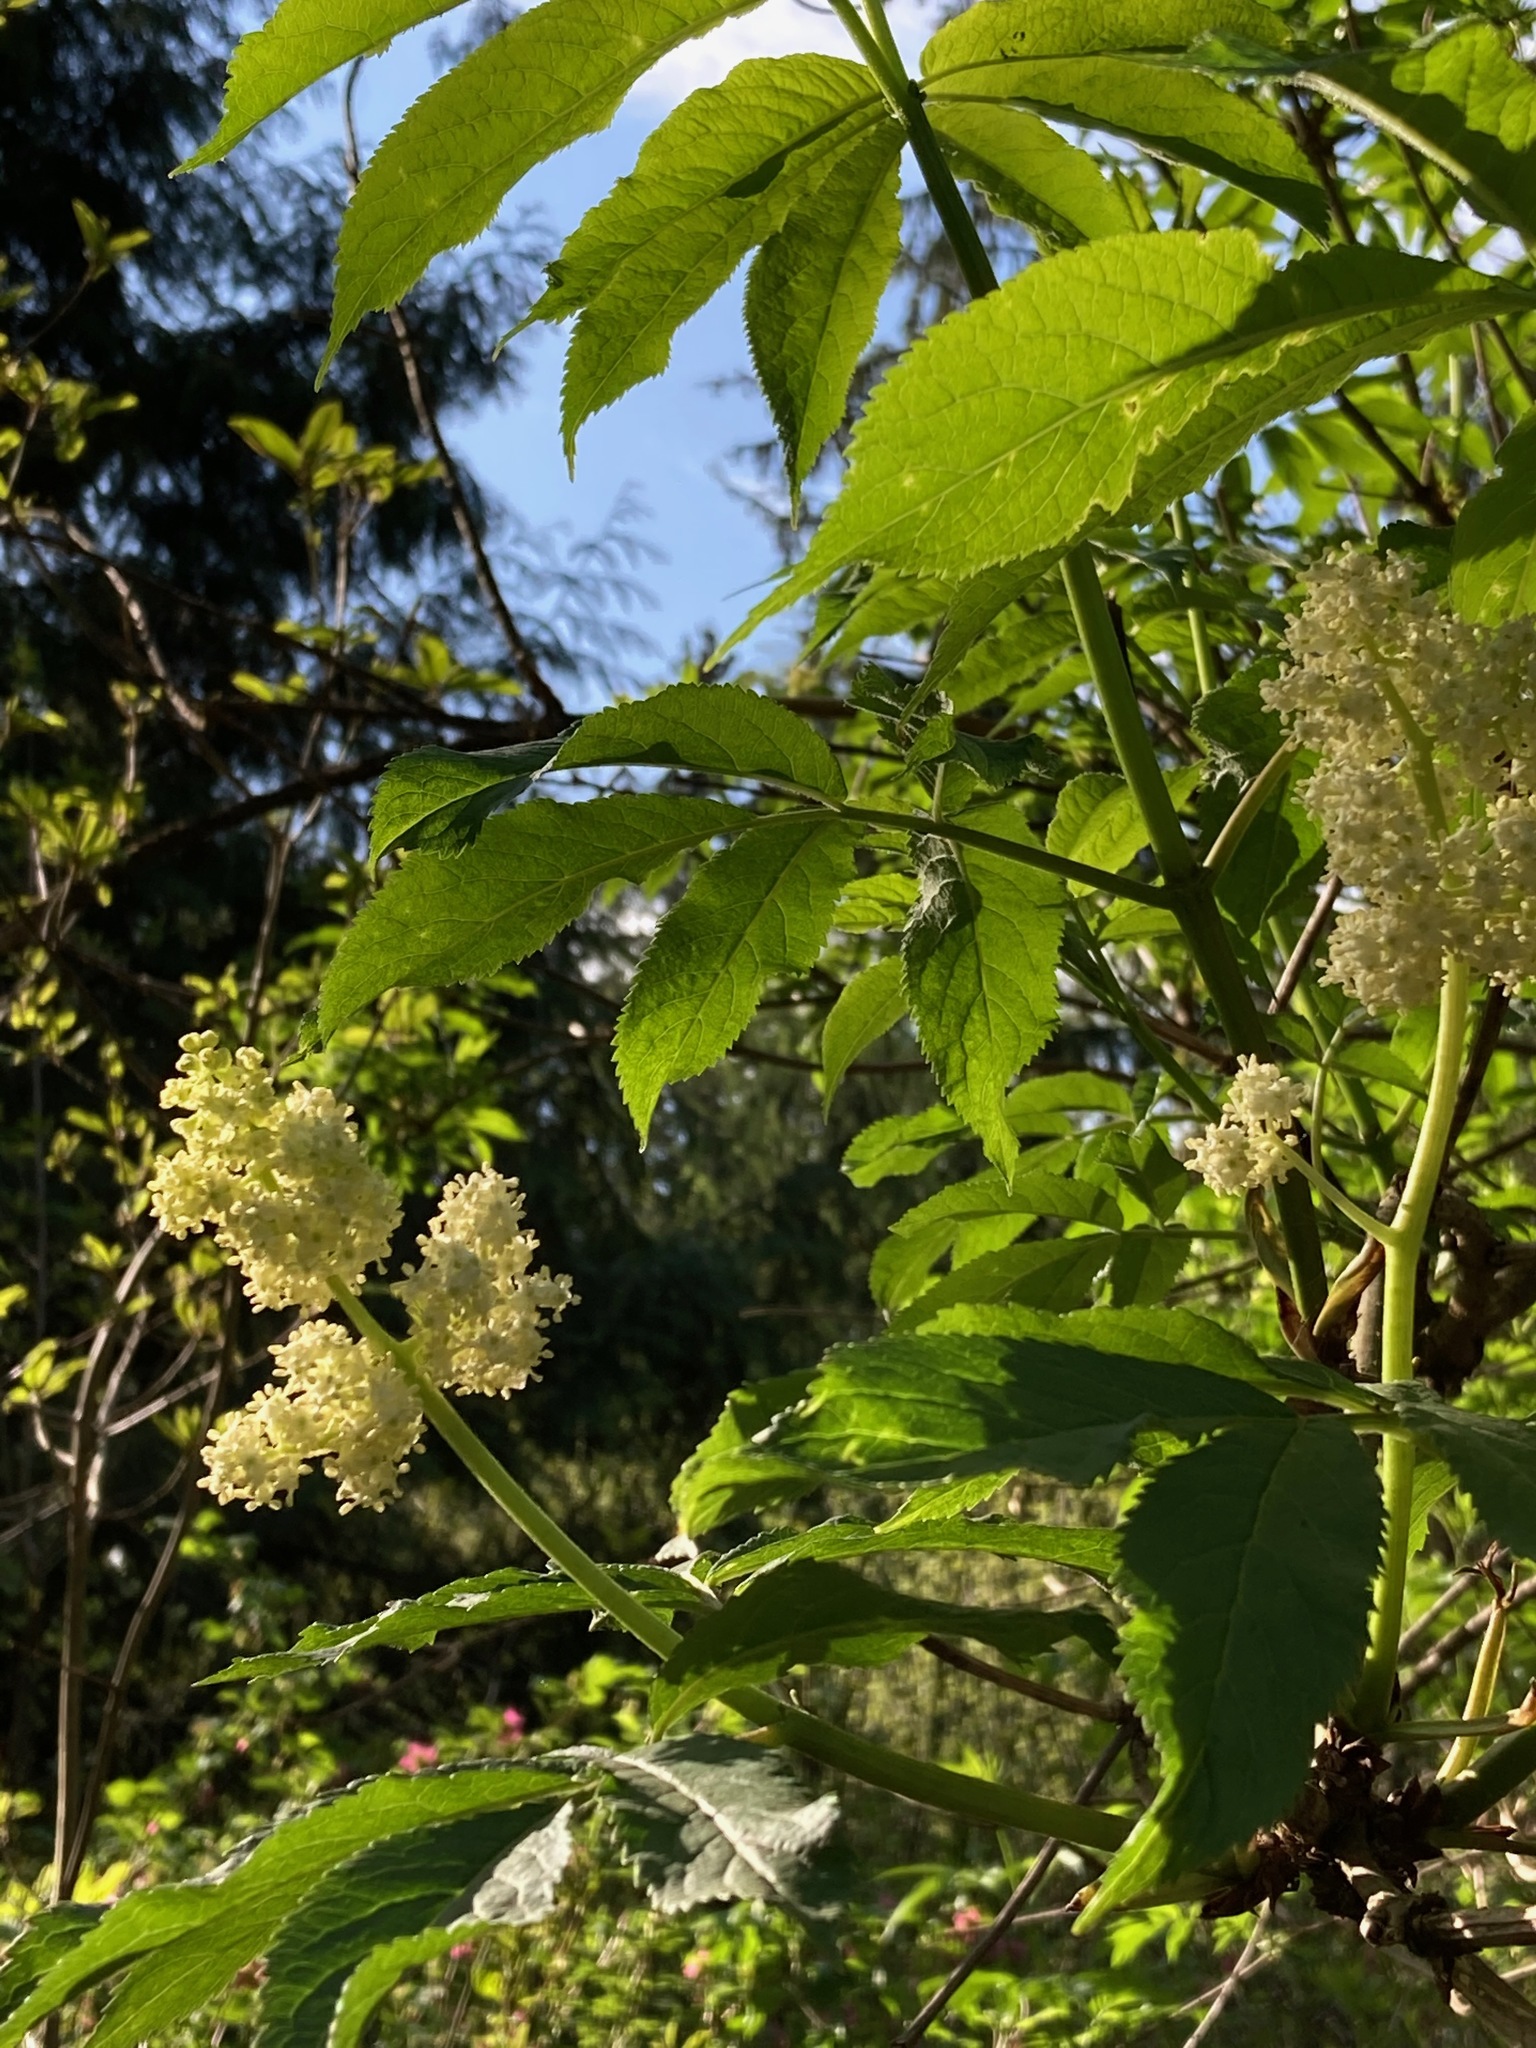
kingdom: Plantae
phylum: Tracheophyta
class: Magnoliopsida
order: Dipsacales
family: Viburnaceae
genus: Sambucus
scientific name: Sambucus racemosa
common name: Red-berried elder
